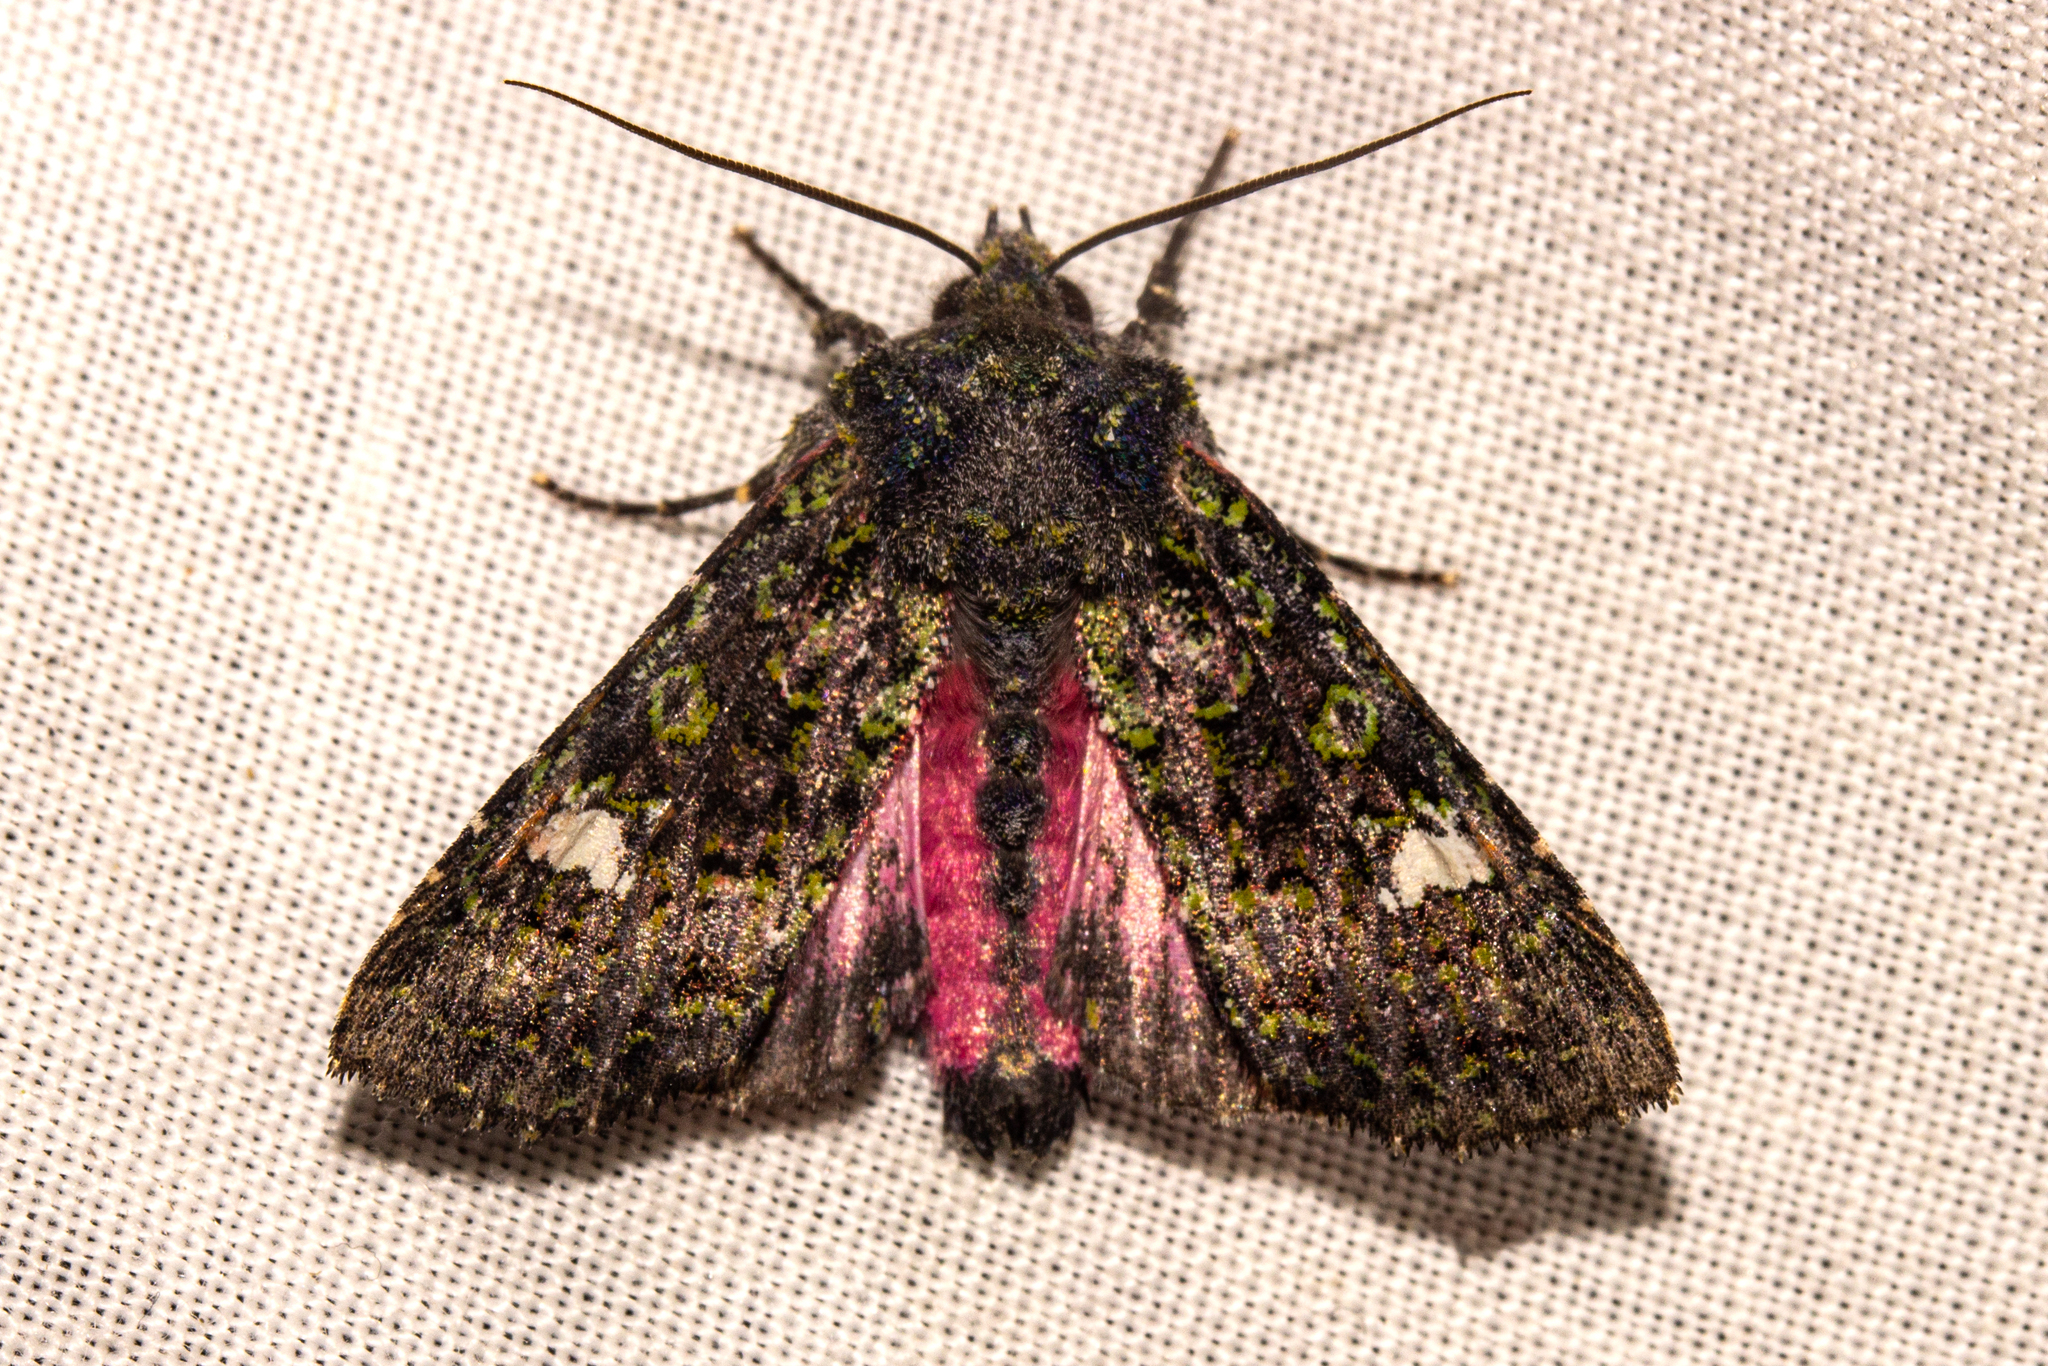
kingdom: Animalia
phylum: Arthropoda
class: Insecta
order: Lepidoptera
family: Noctuidae
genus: Meterana
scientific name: Meterana meyricci
